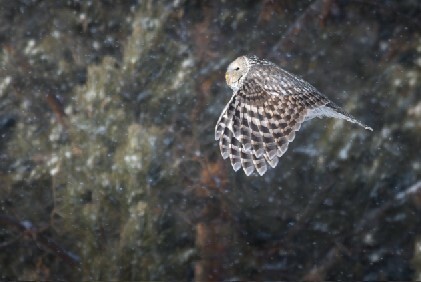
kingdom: Animalia
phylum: Chordata
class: Aves
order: Strigiformes
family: Strigidae
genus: Strix
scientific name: Strix uralensis
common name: Ural owl
